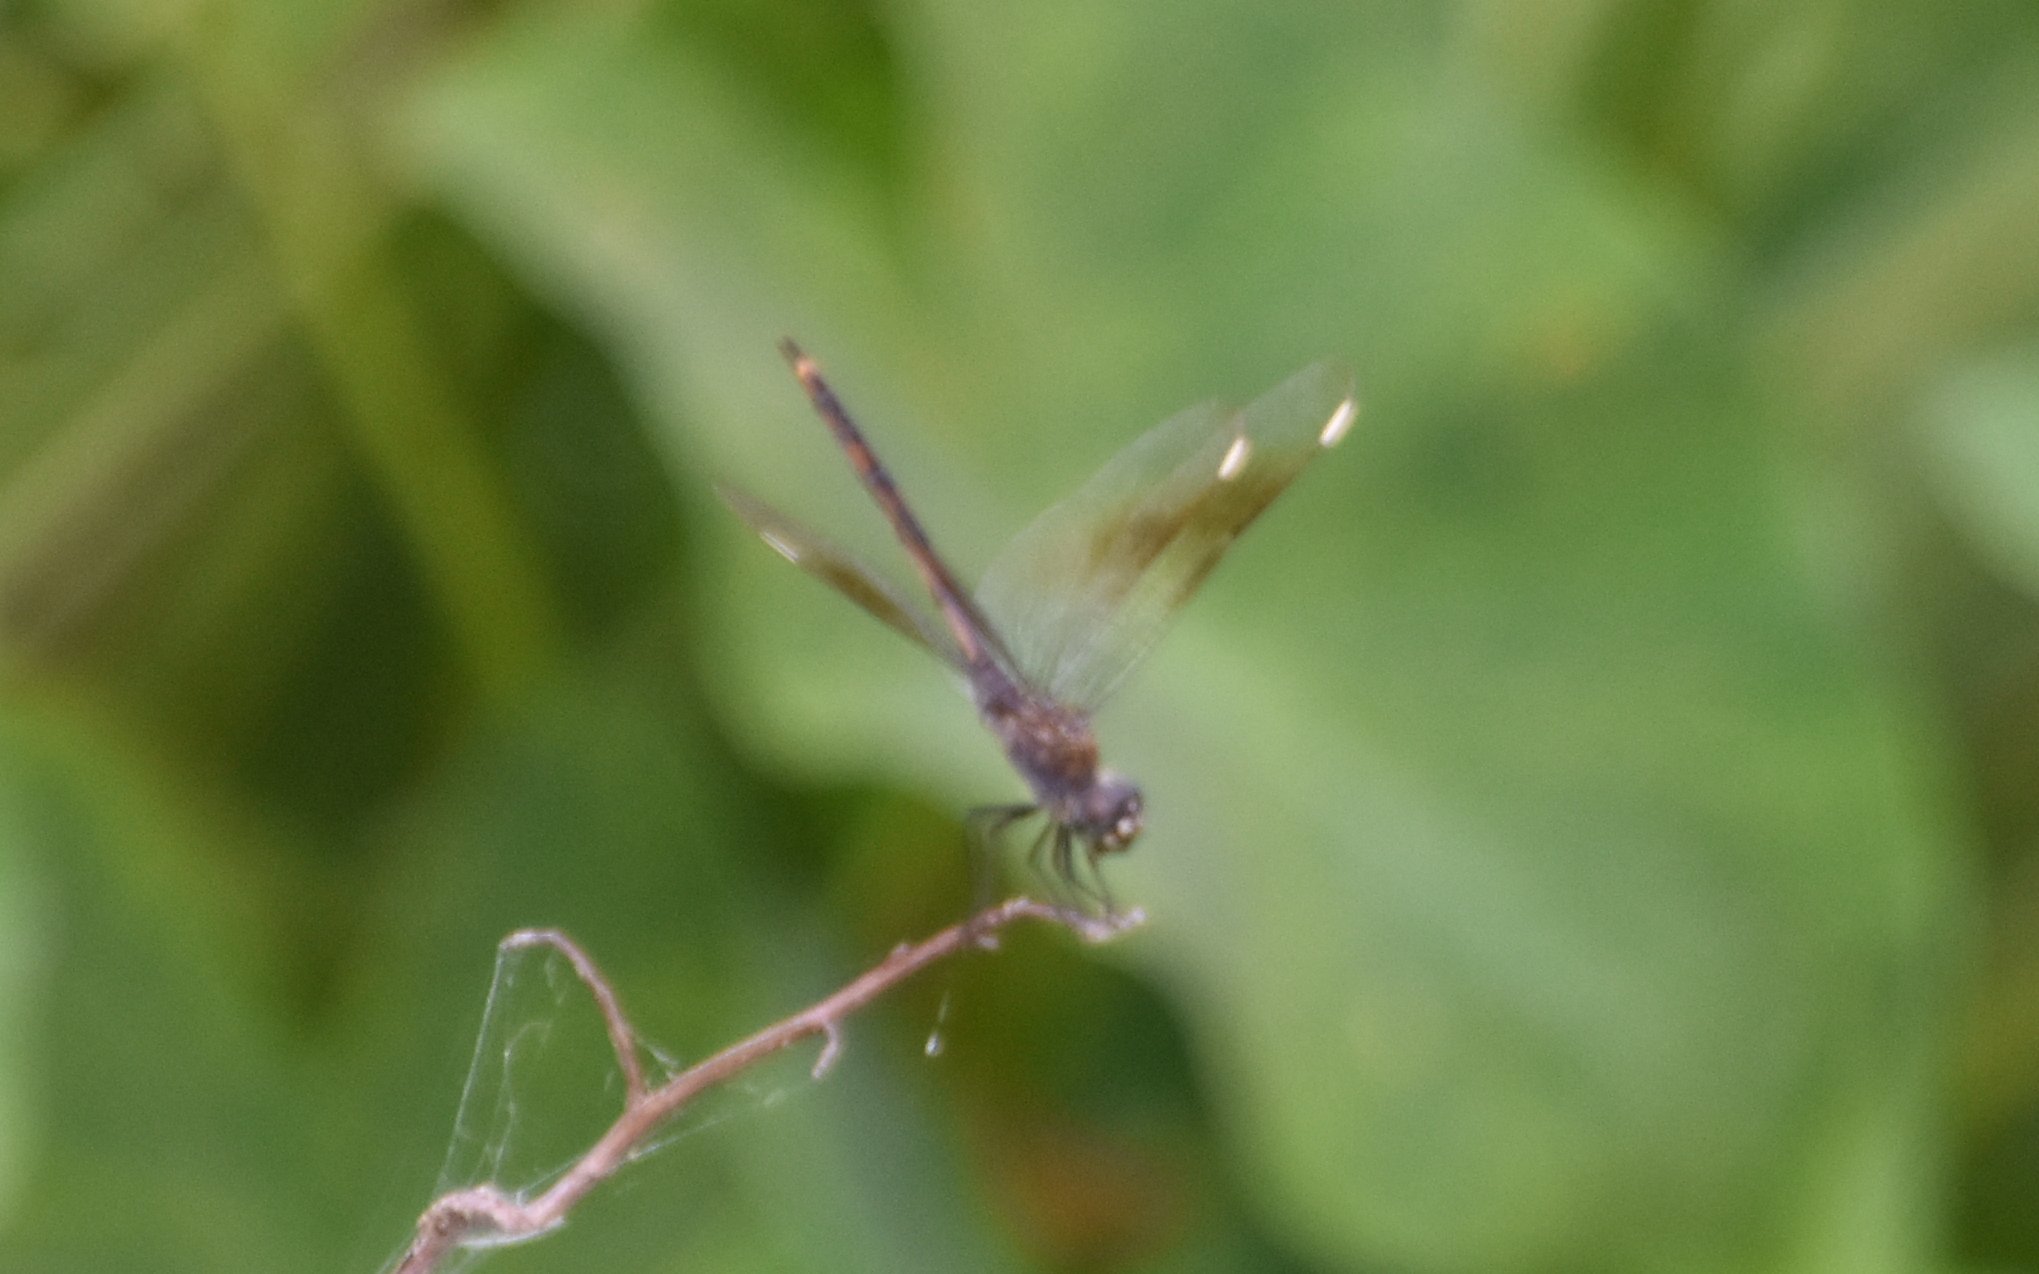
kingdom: Animalia
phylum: Arthropoda
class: Insecta
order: Odonata
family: Libellulidae
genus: Brachymesia
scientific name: Brachymesia gravida
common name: Four-spotted pennant
